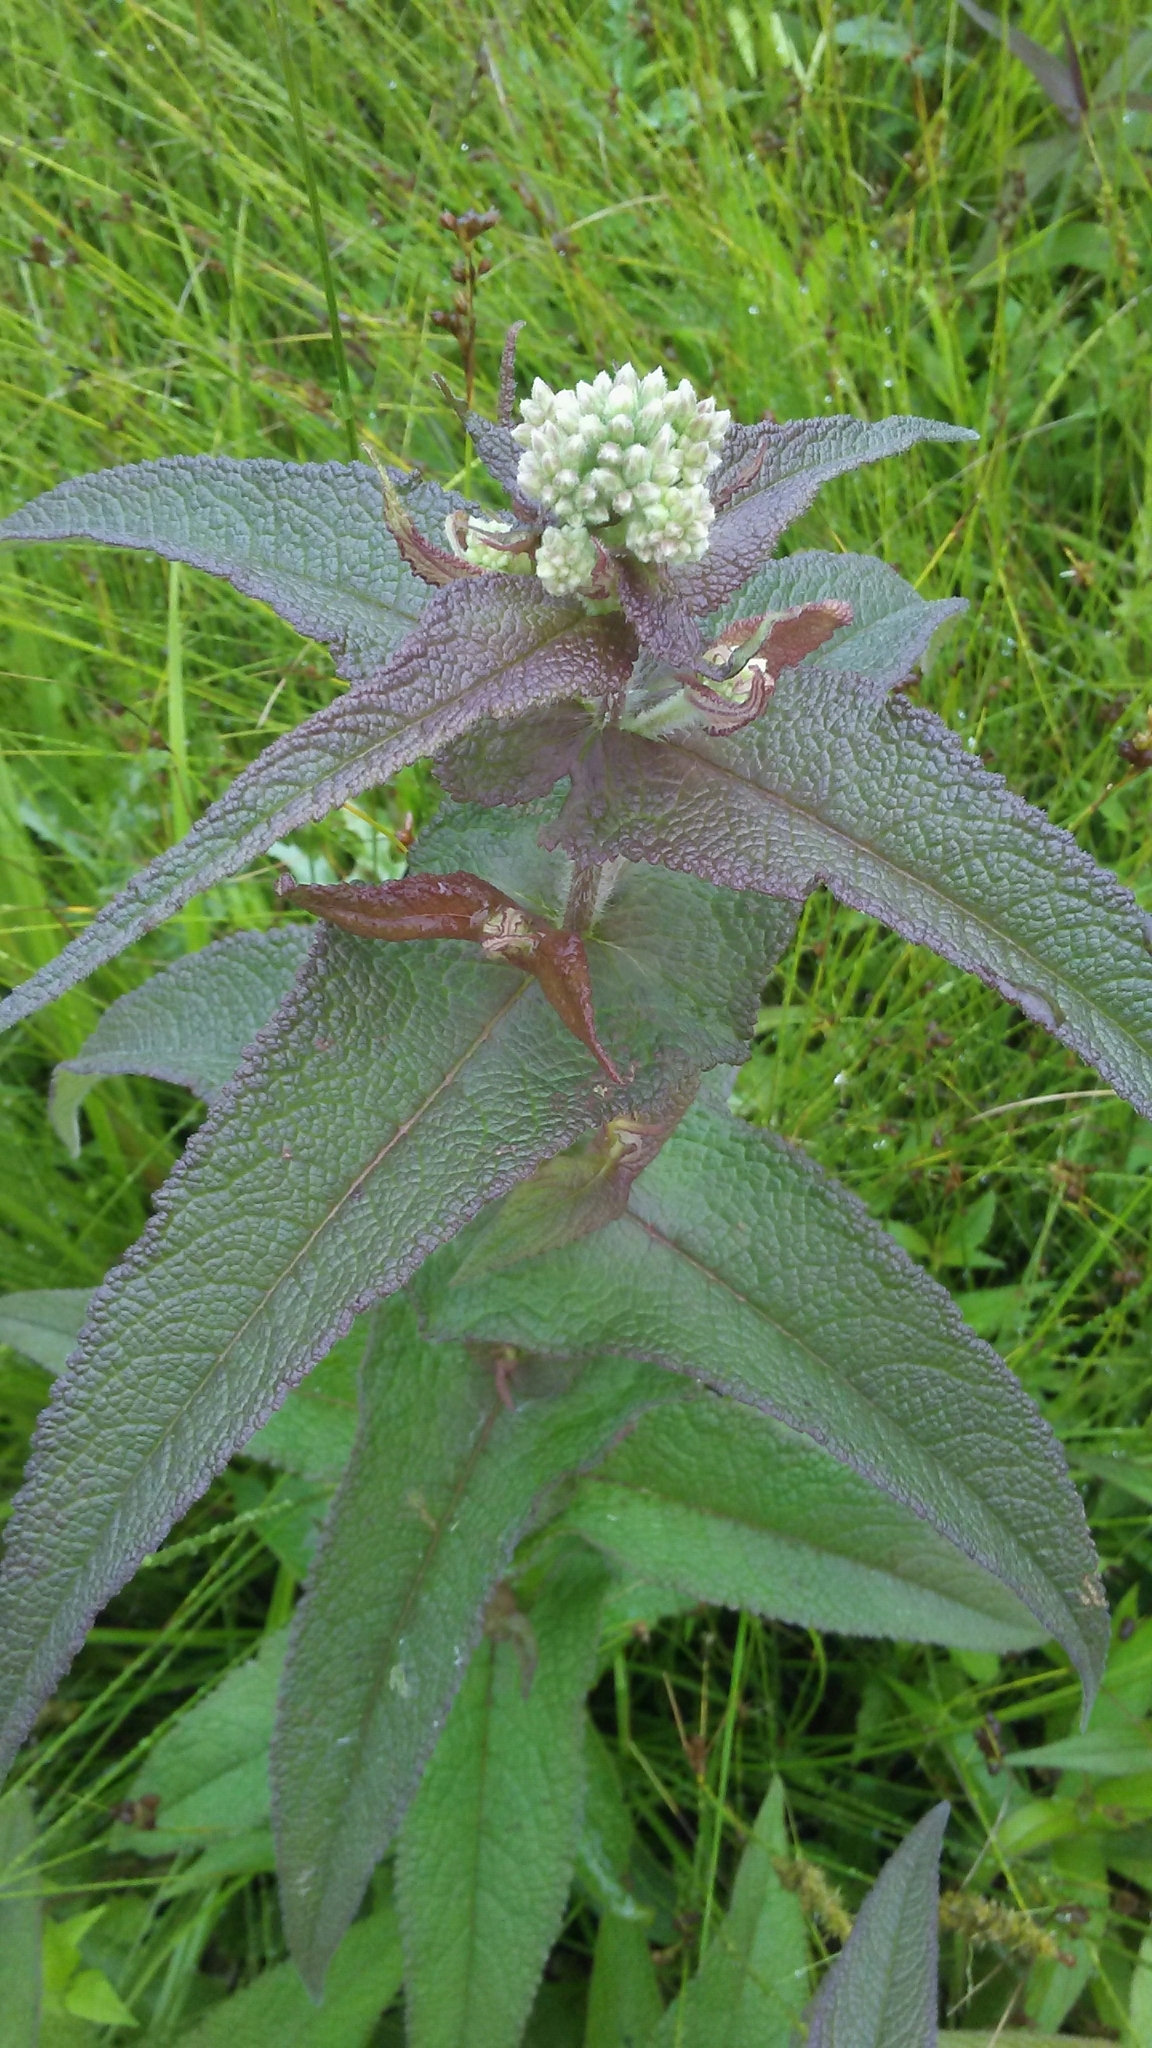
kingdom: Plantae
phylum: Tracheophyta
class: Magnoliopsida
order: Asterales
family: Asteraceae
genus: Eupatorium
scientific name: Eupatorium perfoliatum
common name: Boneset
